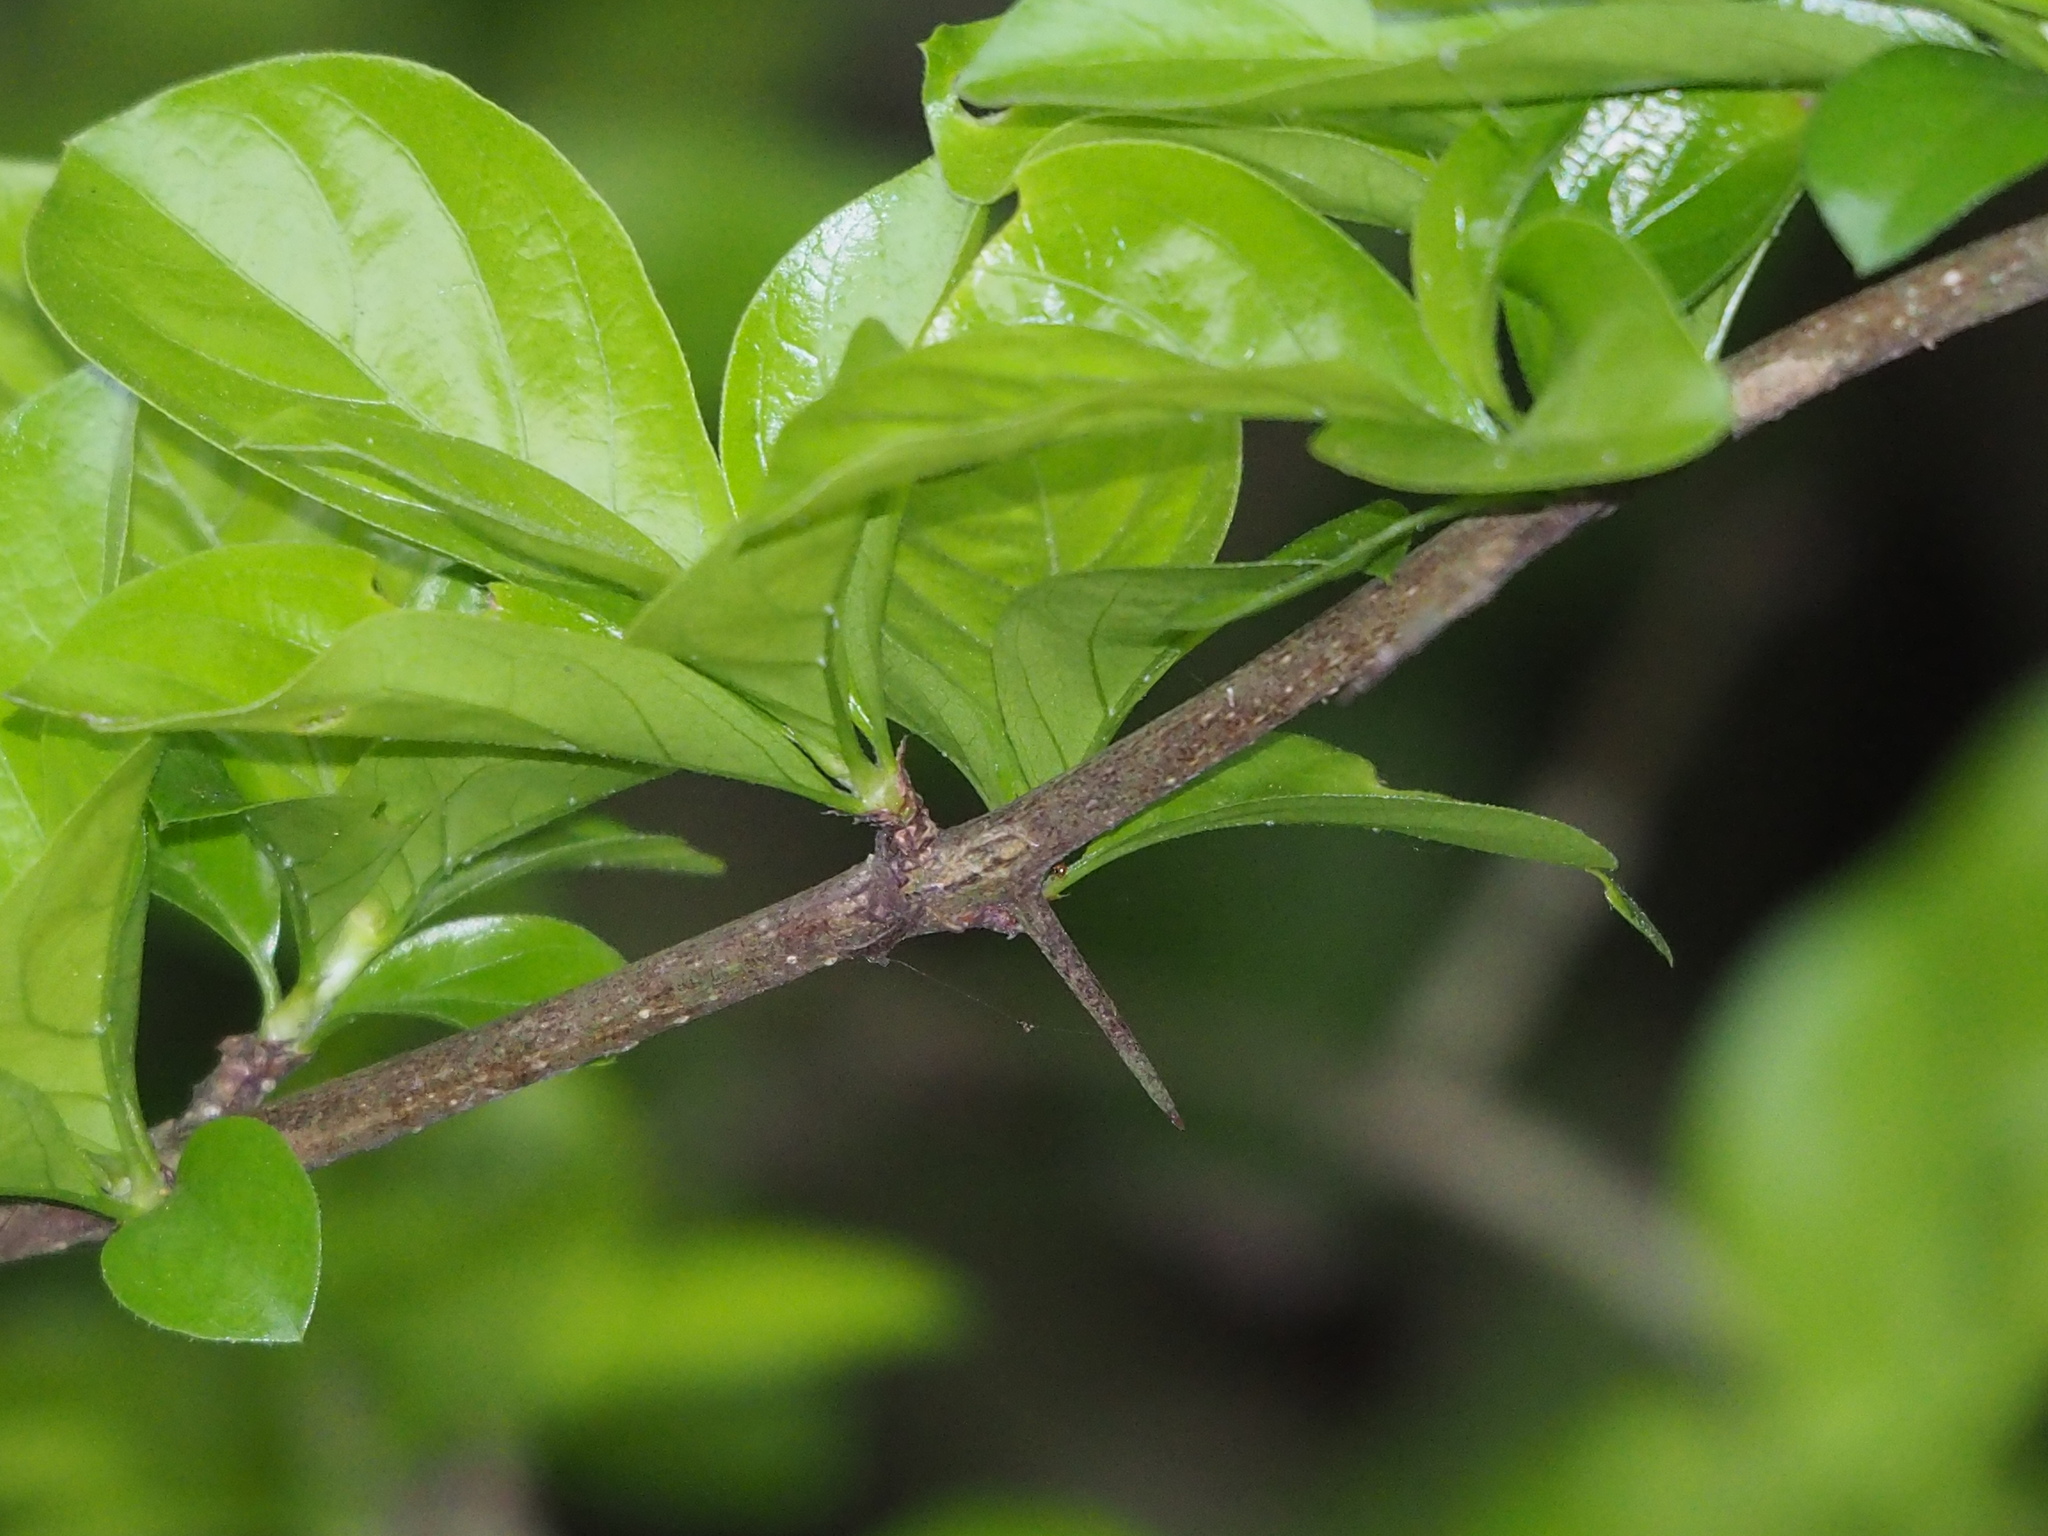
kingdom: Plantae
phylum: Tracheophyta
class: Magnoliopsida
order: Gentianales
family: Rubiaceae
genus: Catunaregam
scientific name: Catunaregam spinosa
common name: Emetic-nut
